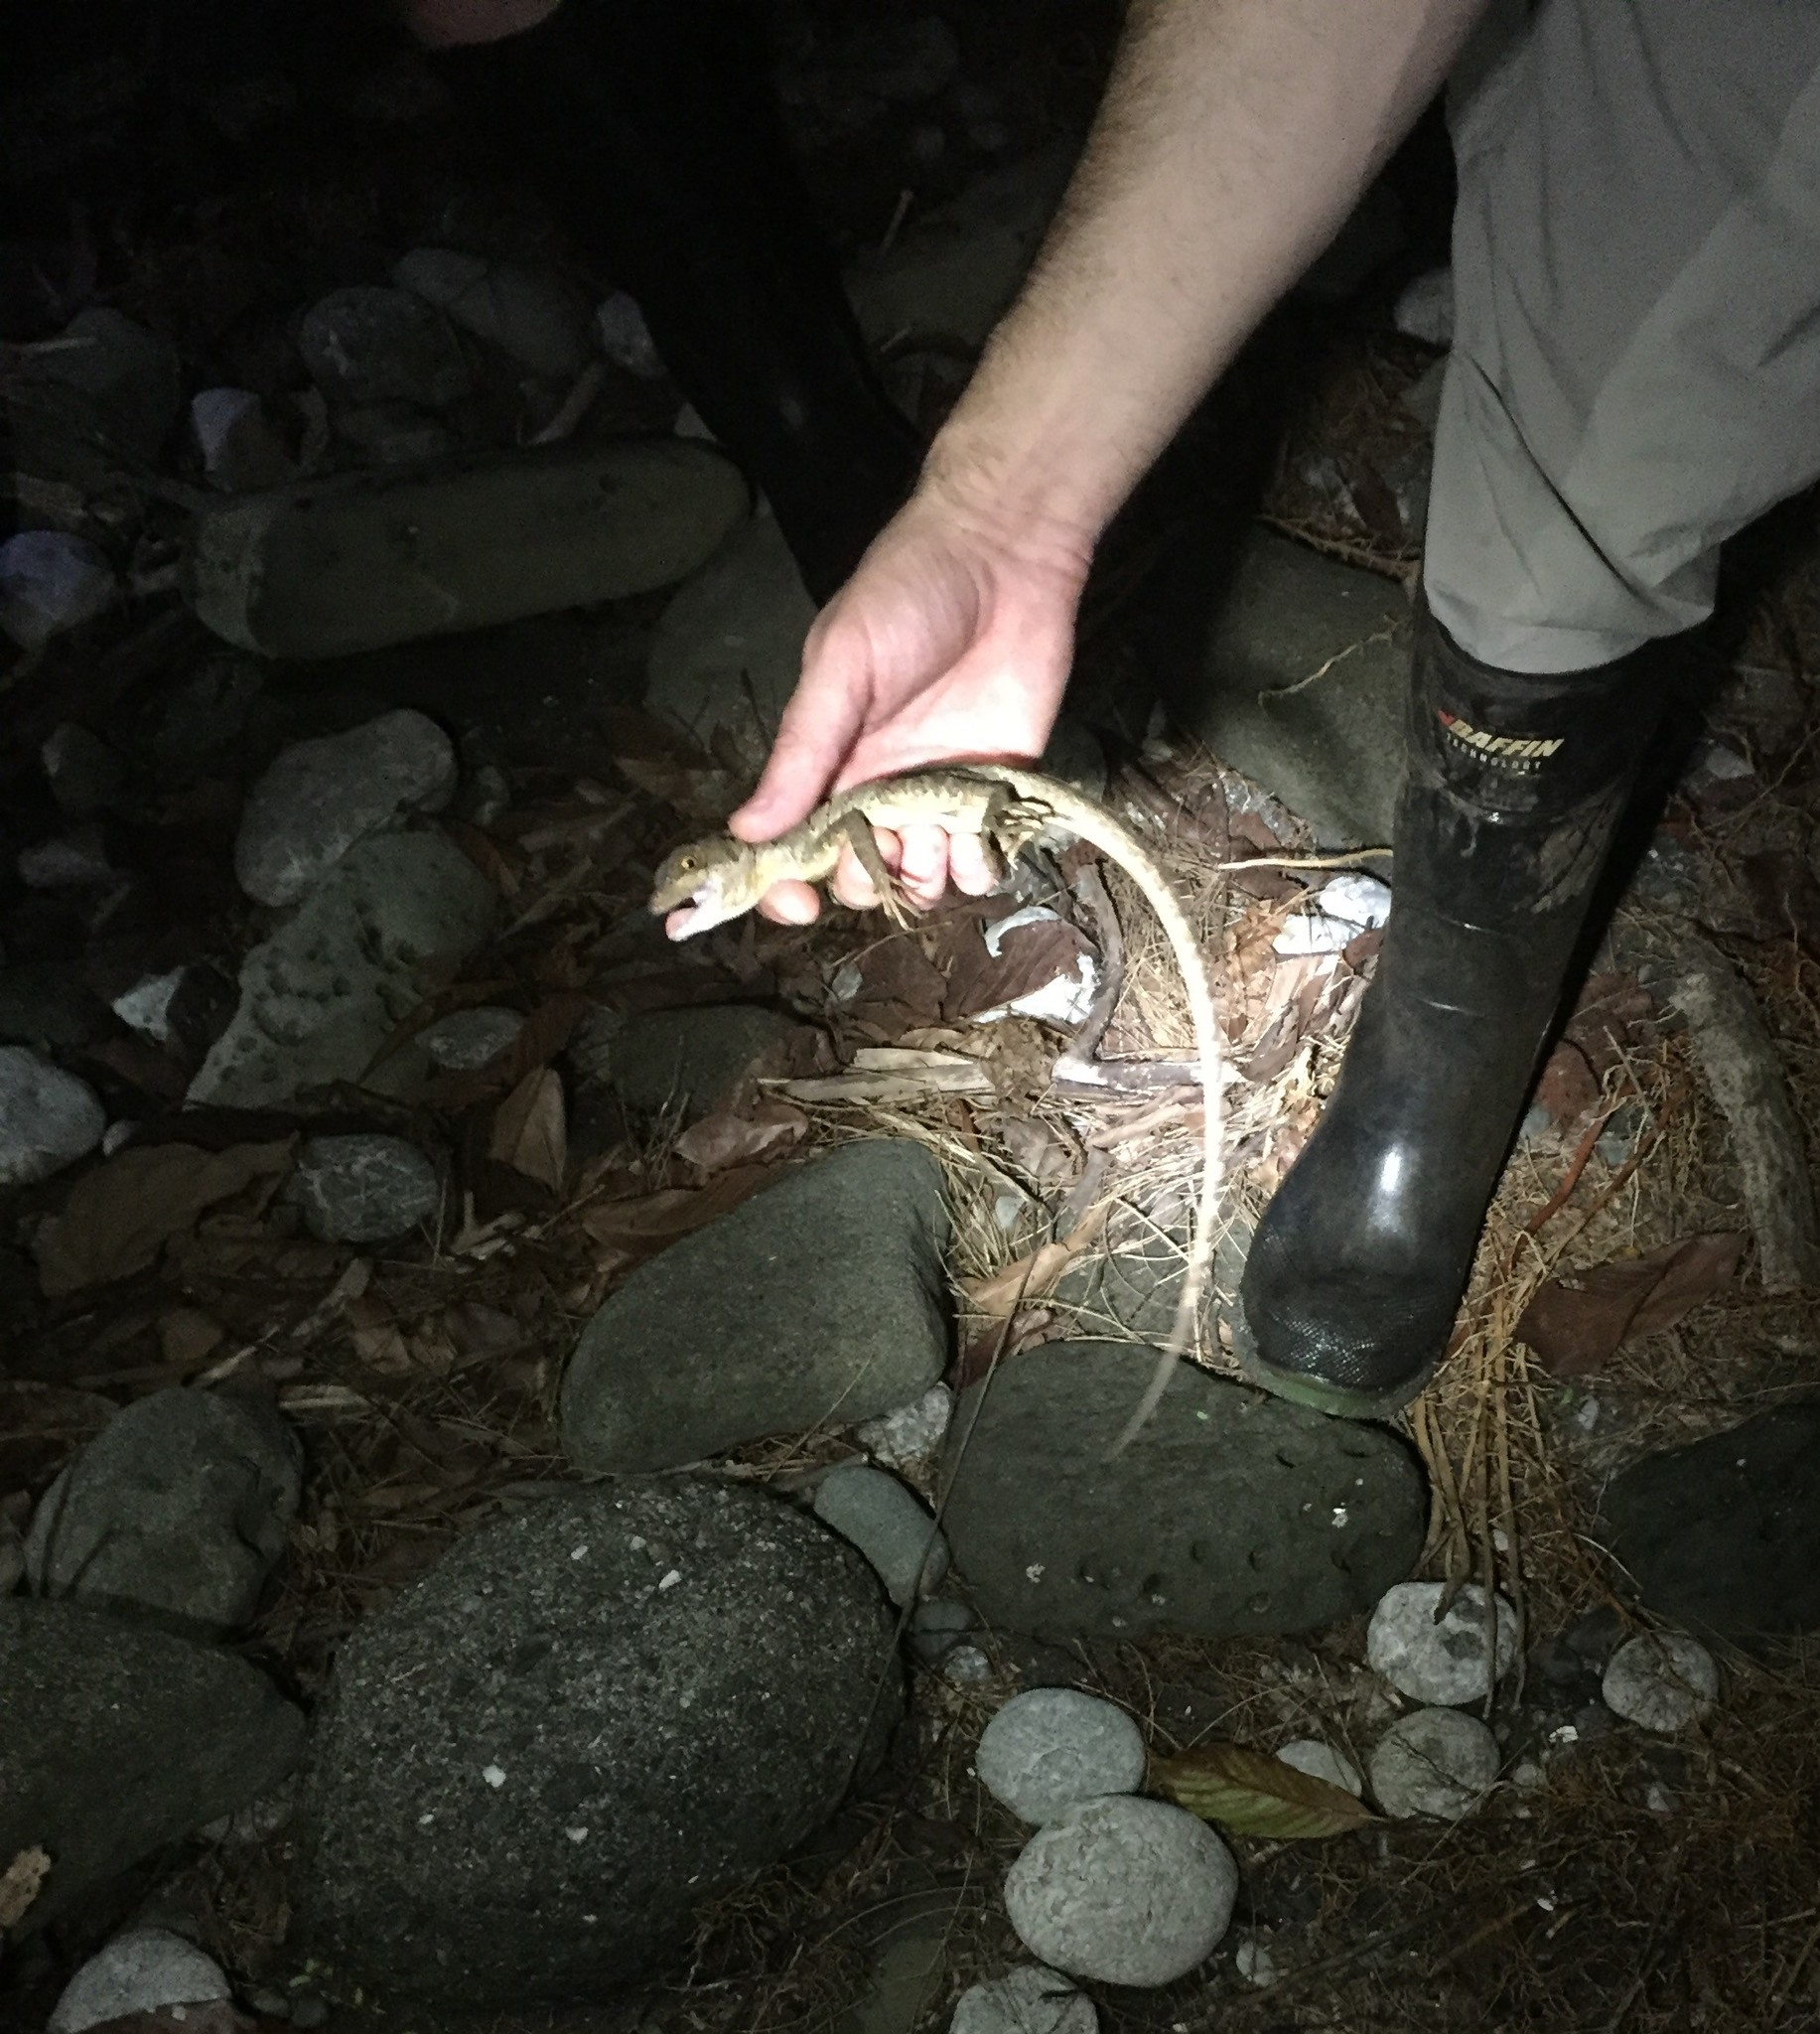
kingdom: Animalia
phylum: Chordata
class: Squamata
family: Corytophanidae
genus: Basiliscus
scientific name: Basiliscus basiliscus
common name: Common basilisk
